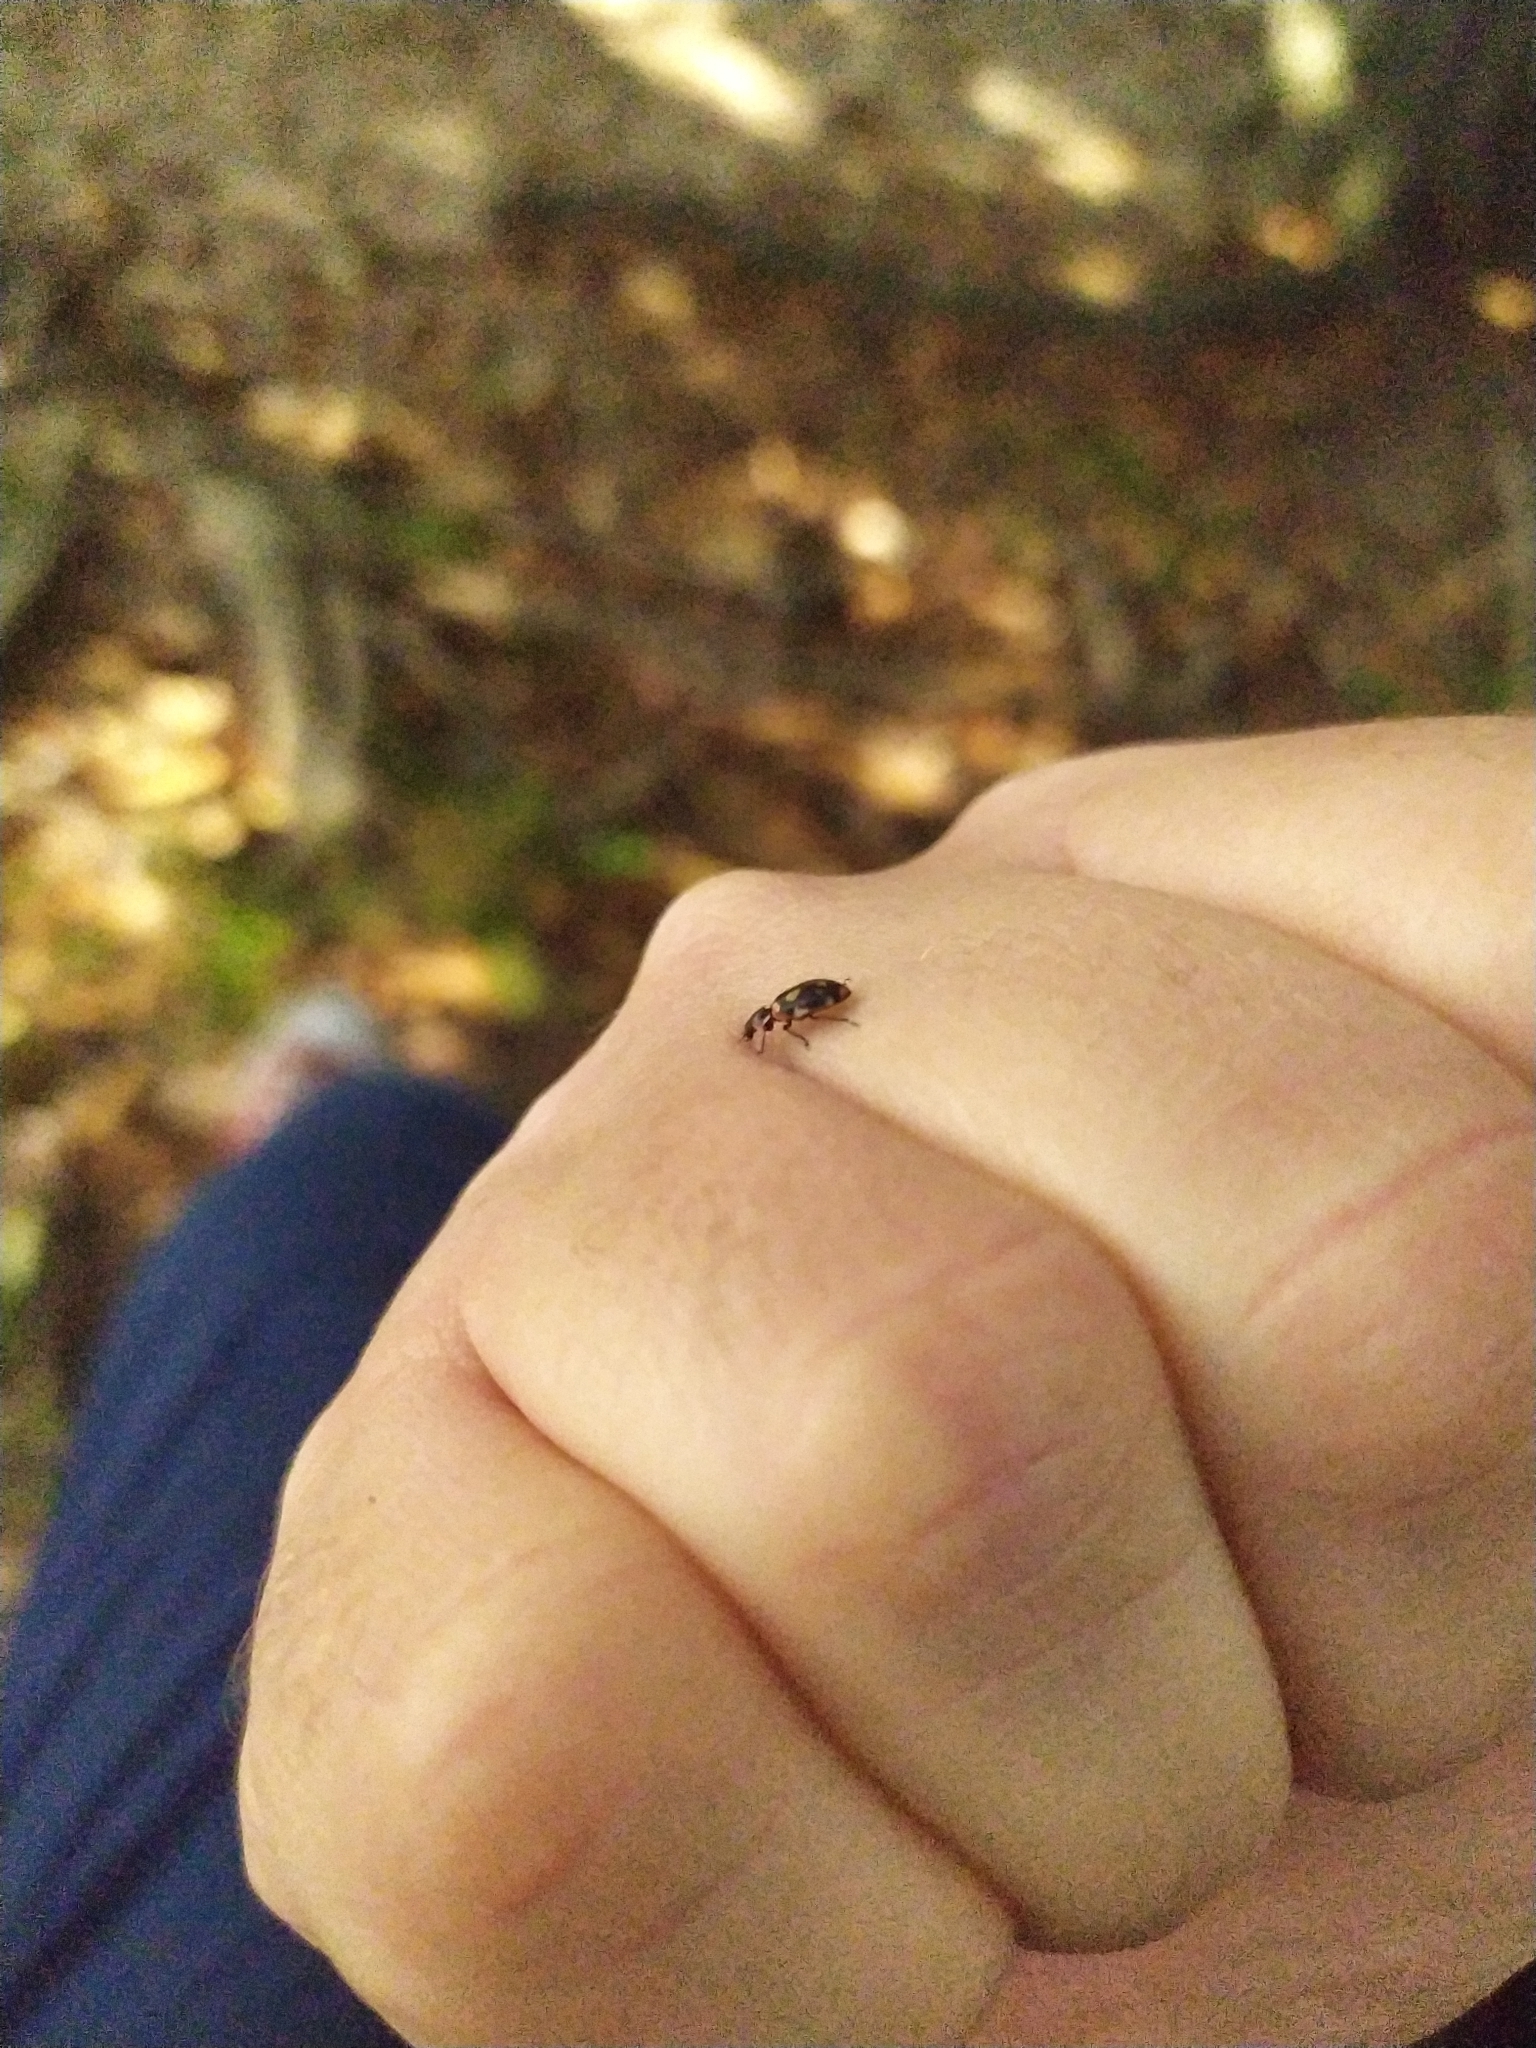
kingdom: Animalia
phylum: Arthropoda
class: Insecta
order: Coleoptera
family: Coccinellidae
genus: Eriopis
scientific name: Eriopis connexa
